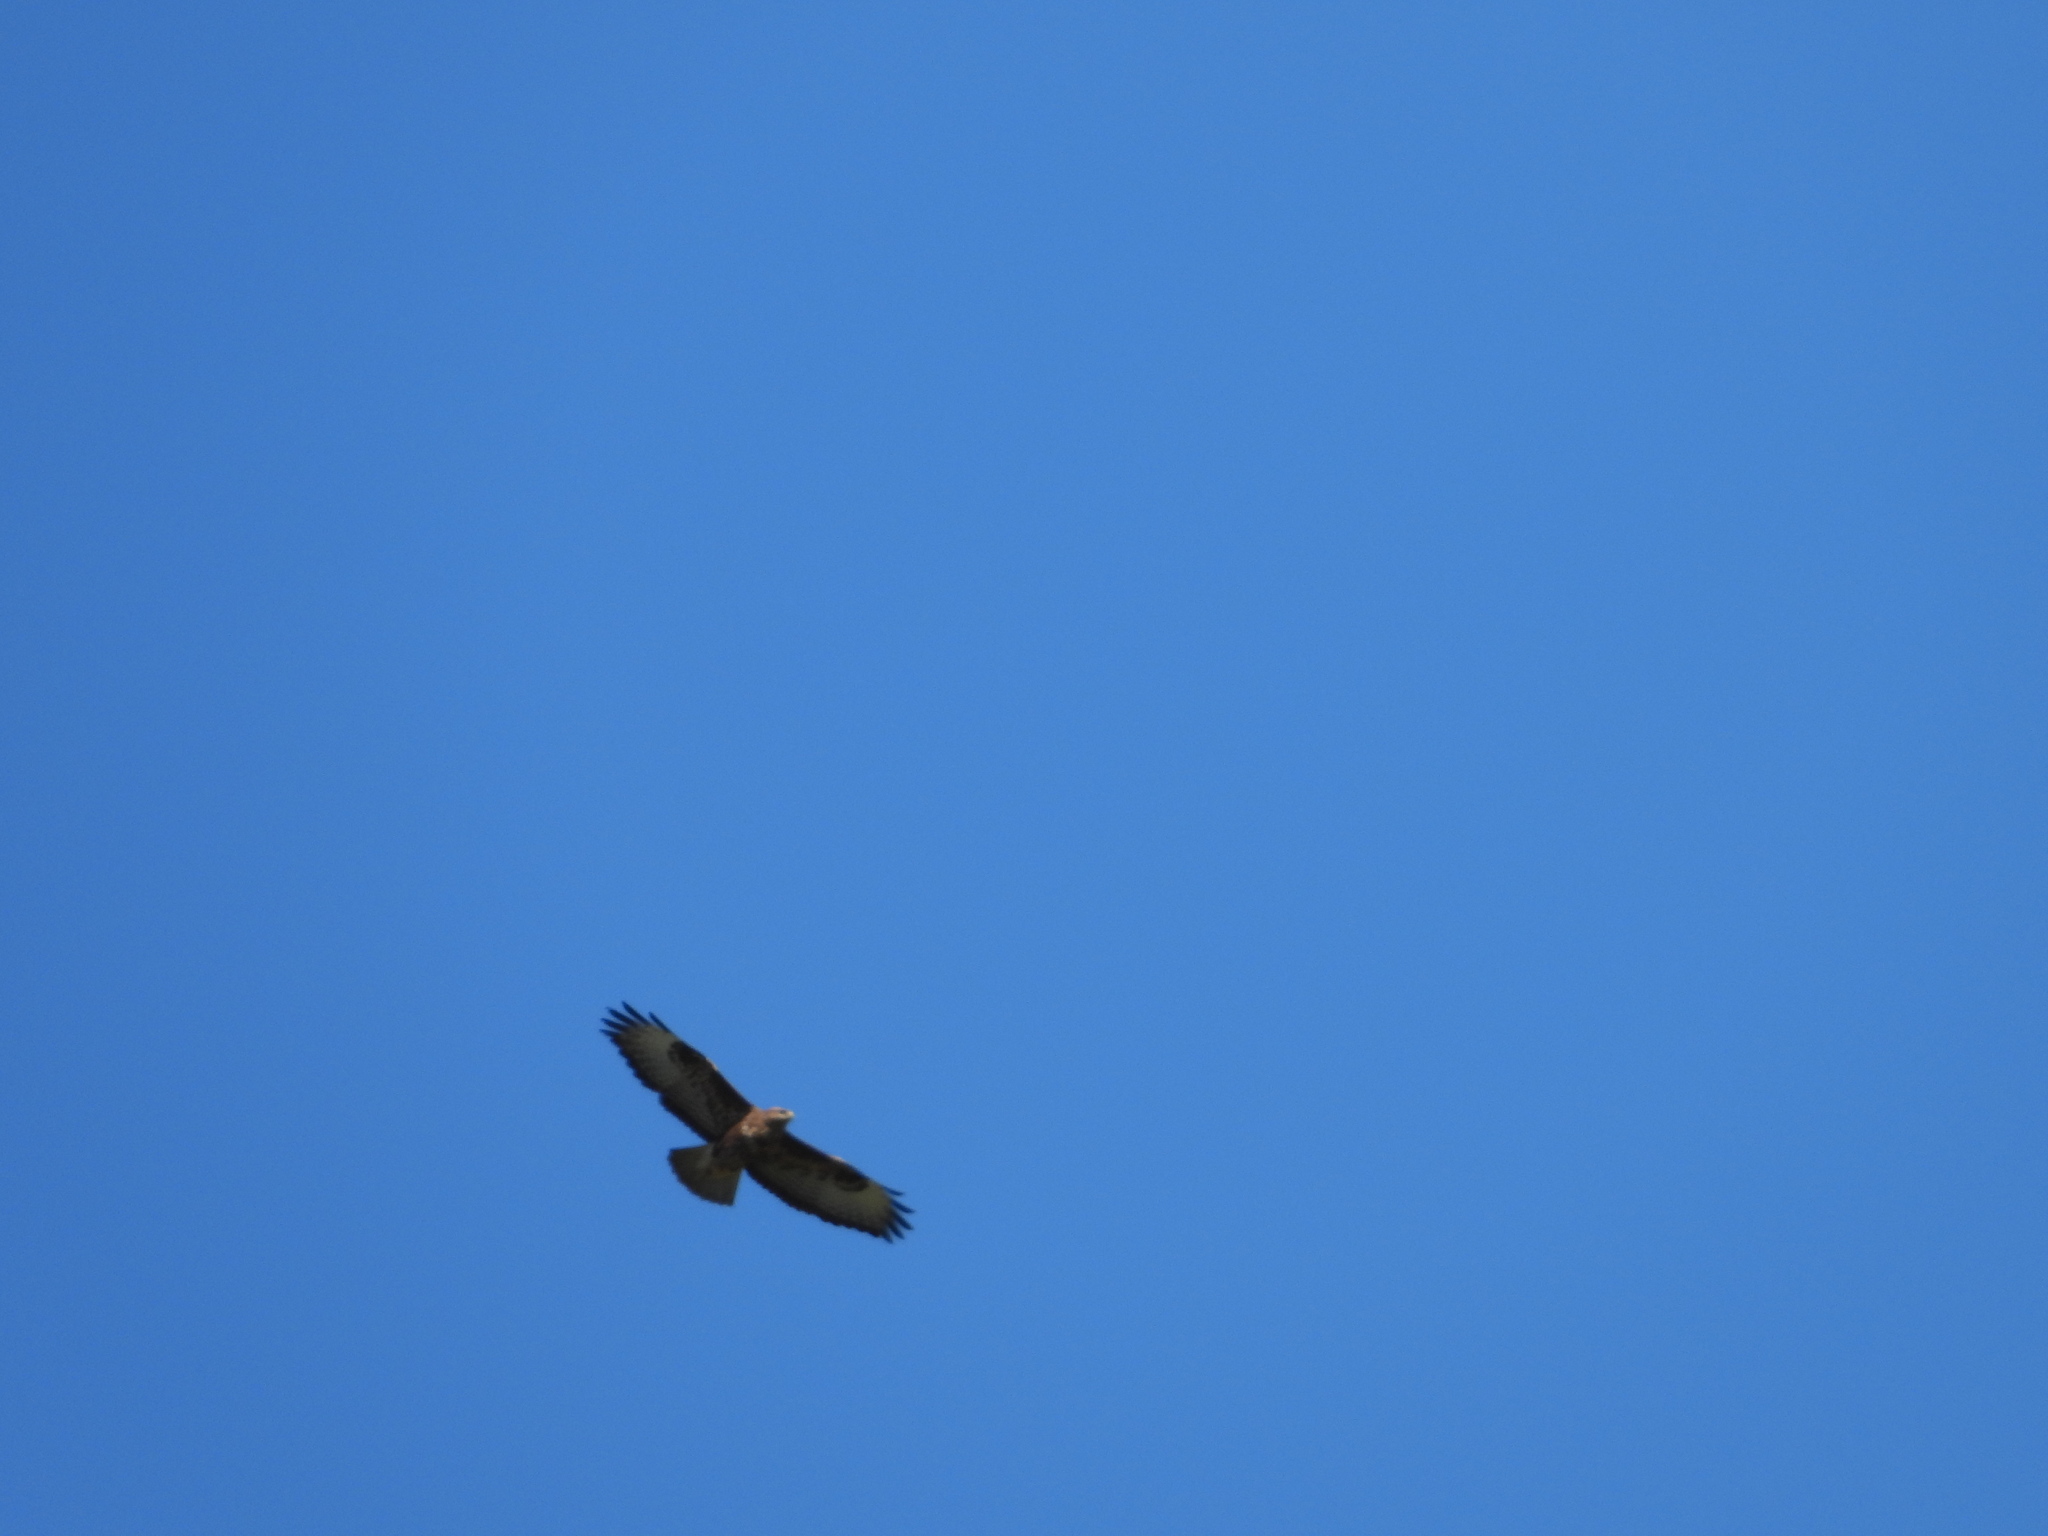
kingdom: Animalia
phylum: Chordata
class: Aves
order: Accipitriformes
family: Accipitridae
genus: Buteo
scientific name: Buteo buteo
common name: Common buzzard
